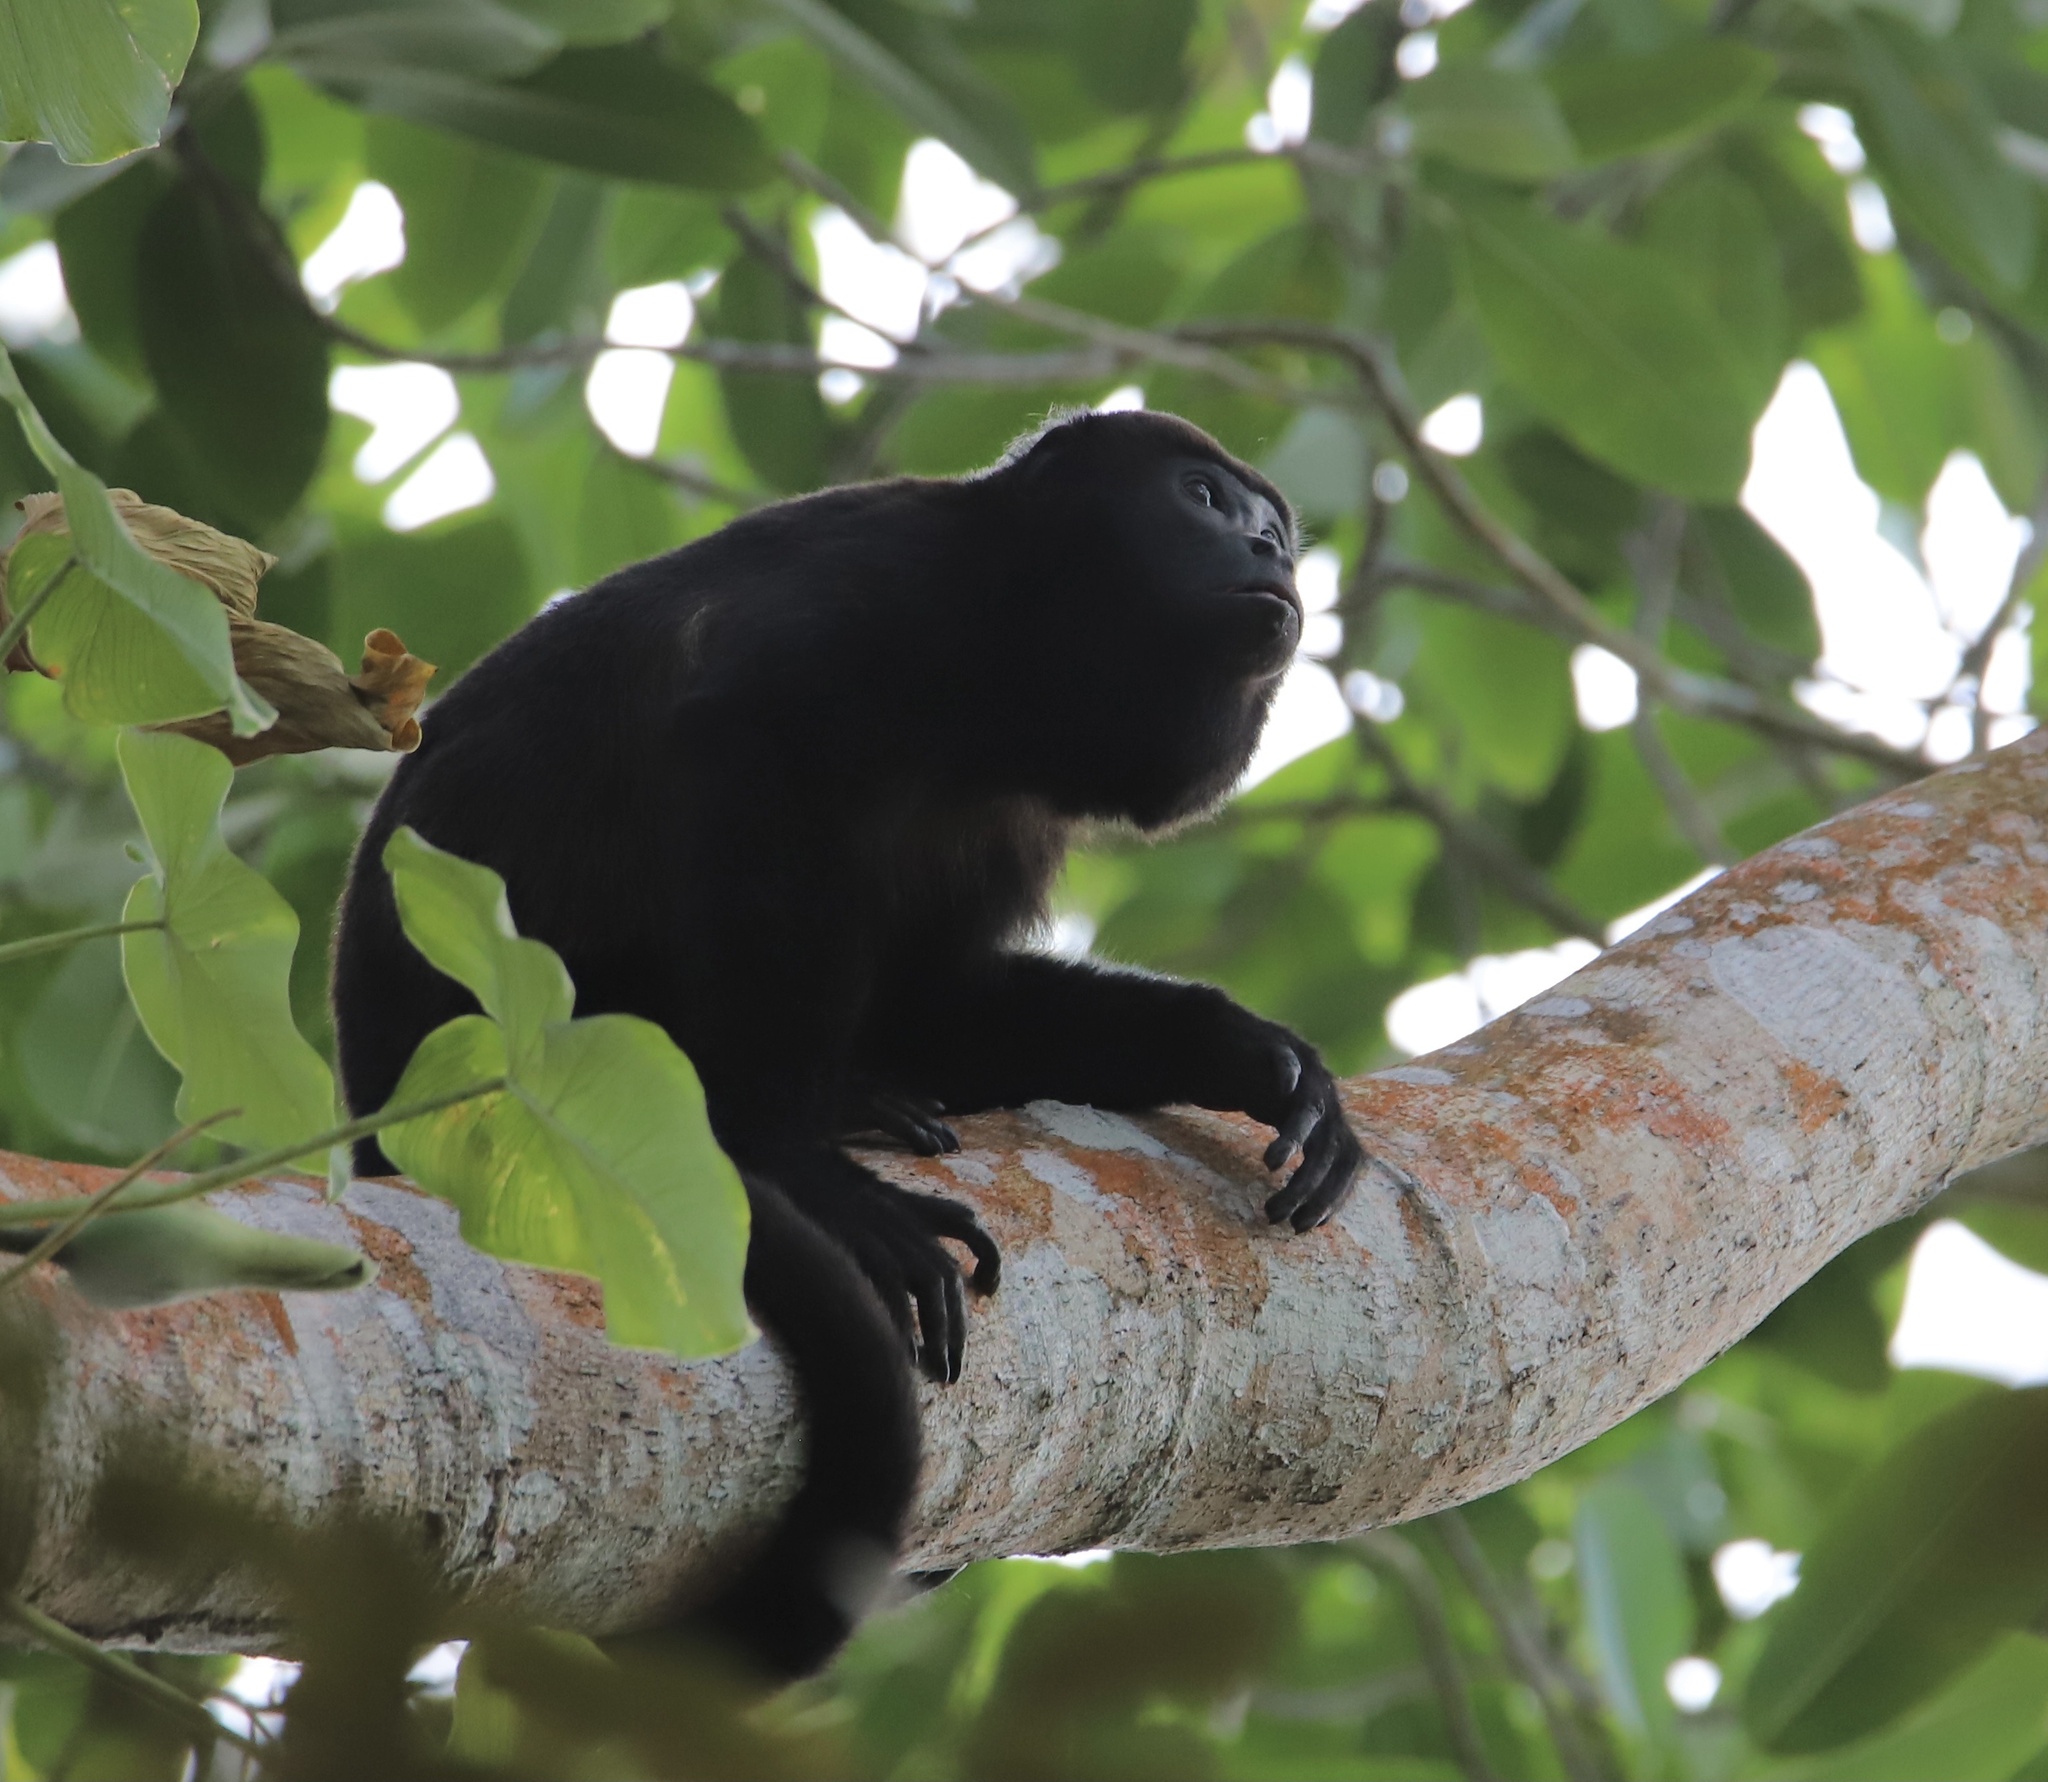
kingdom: Animalia
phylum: Chordata
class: Mammalia
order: Primates
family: Atelidae
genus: Alouatta
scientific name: Alouatta palliata
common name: Mantled howler
